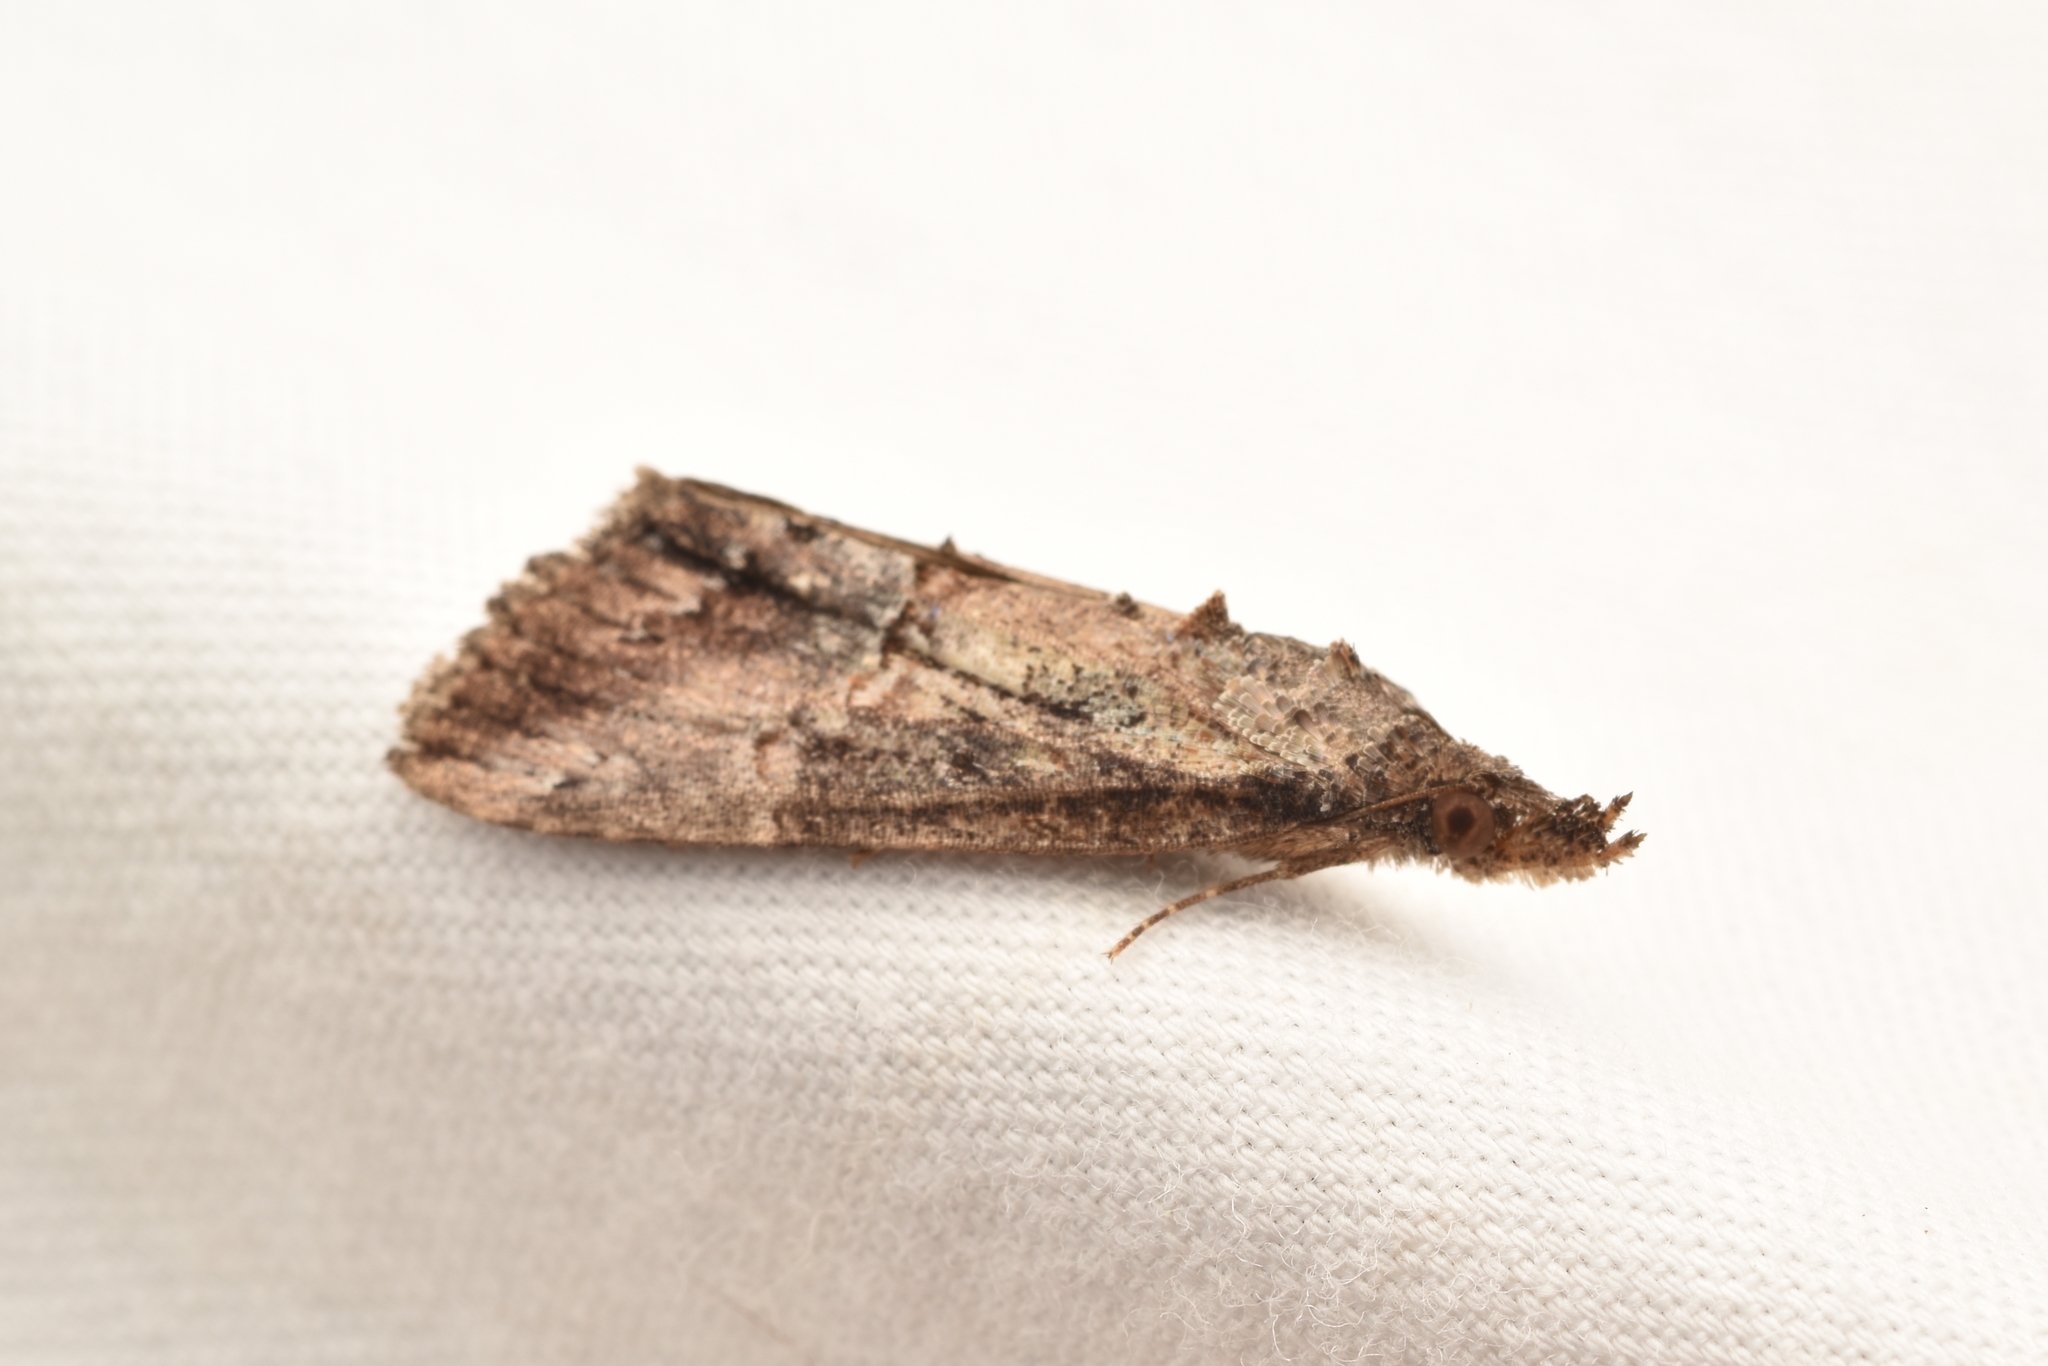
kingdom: Animalia
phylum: Arthropoda
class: Insecta
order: Lepidoptera
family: Erebidae
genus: Hypena
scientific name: Hypena scabra
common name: Green cloverworm
